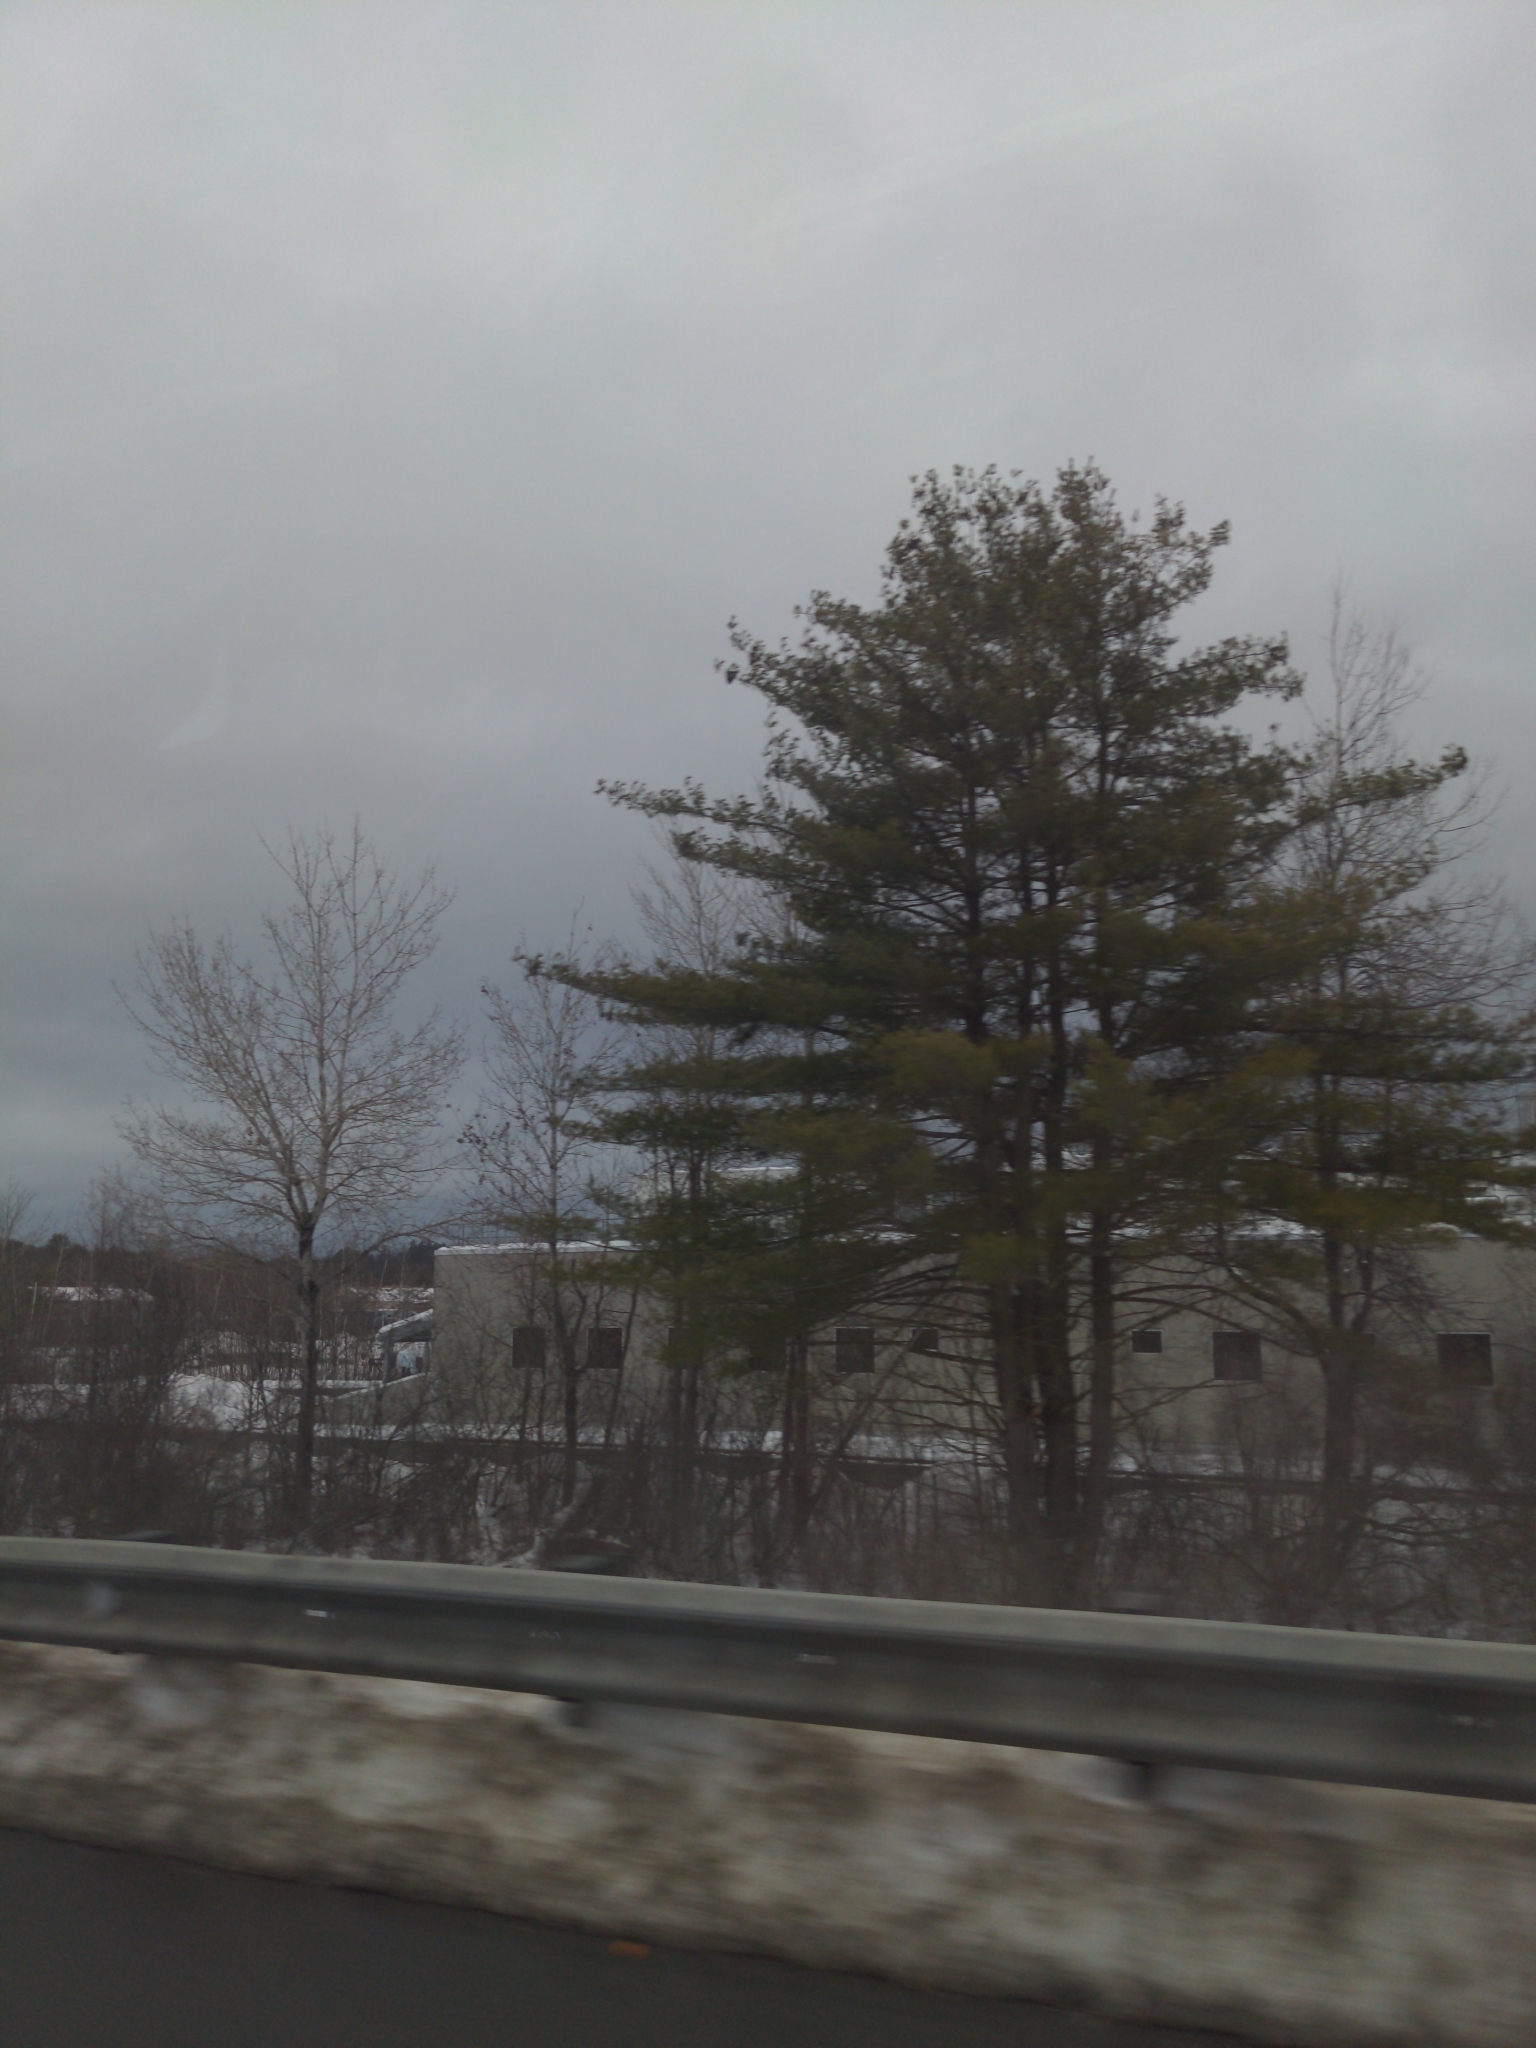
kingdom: Plantae
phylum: Tracheophyta
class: Pinopsida
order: Pinales
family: Pinaceae
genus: Pinus
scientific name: Pinus strobus
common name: Weymouth pine
